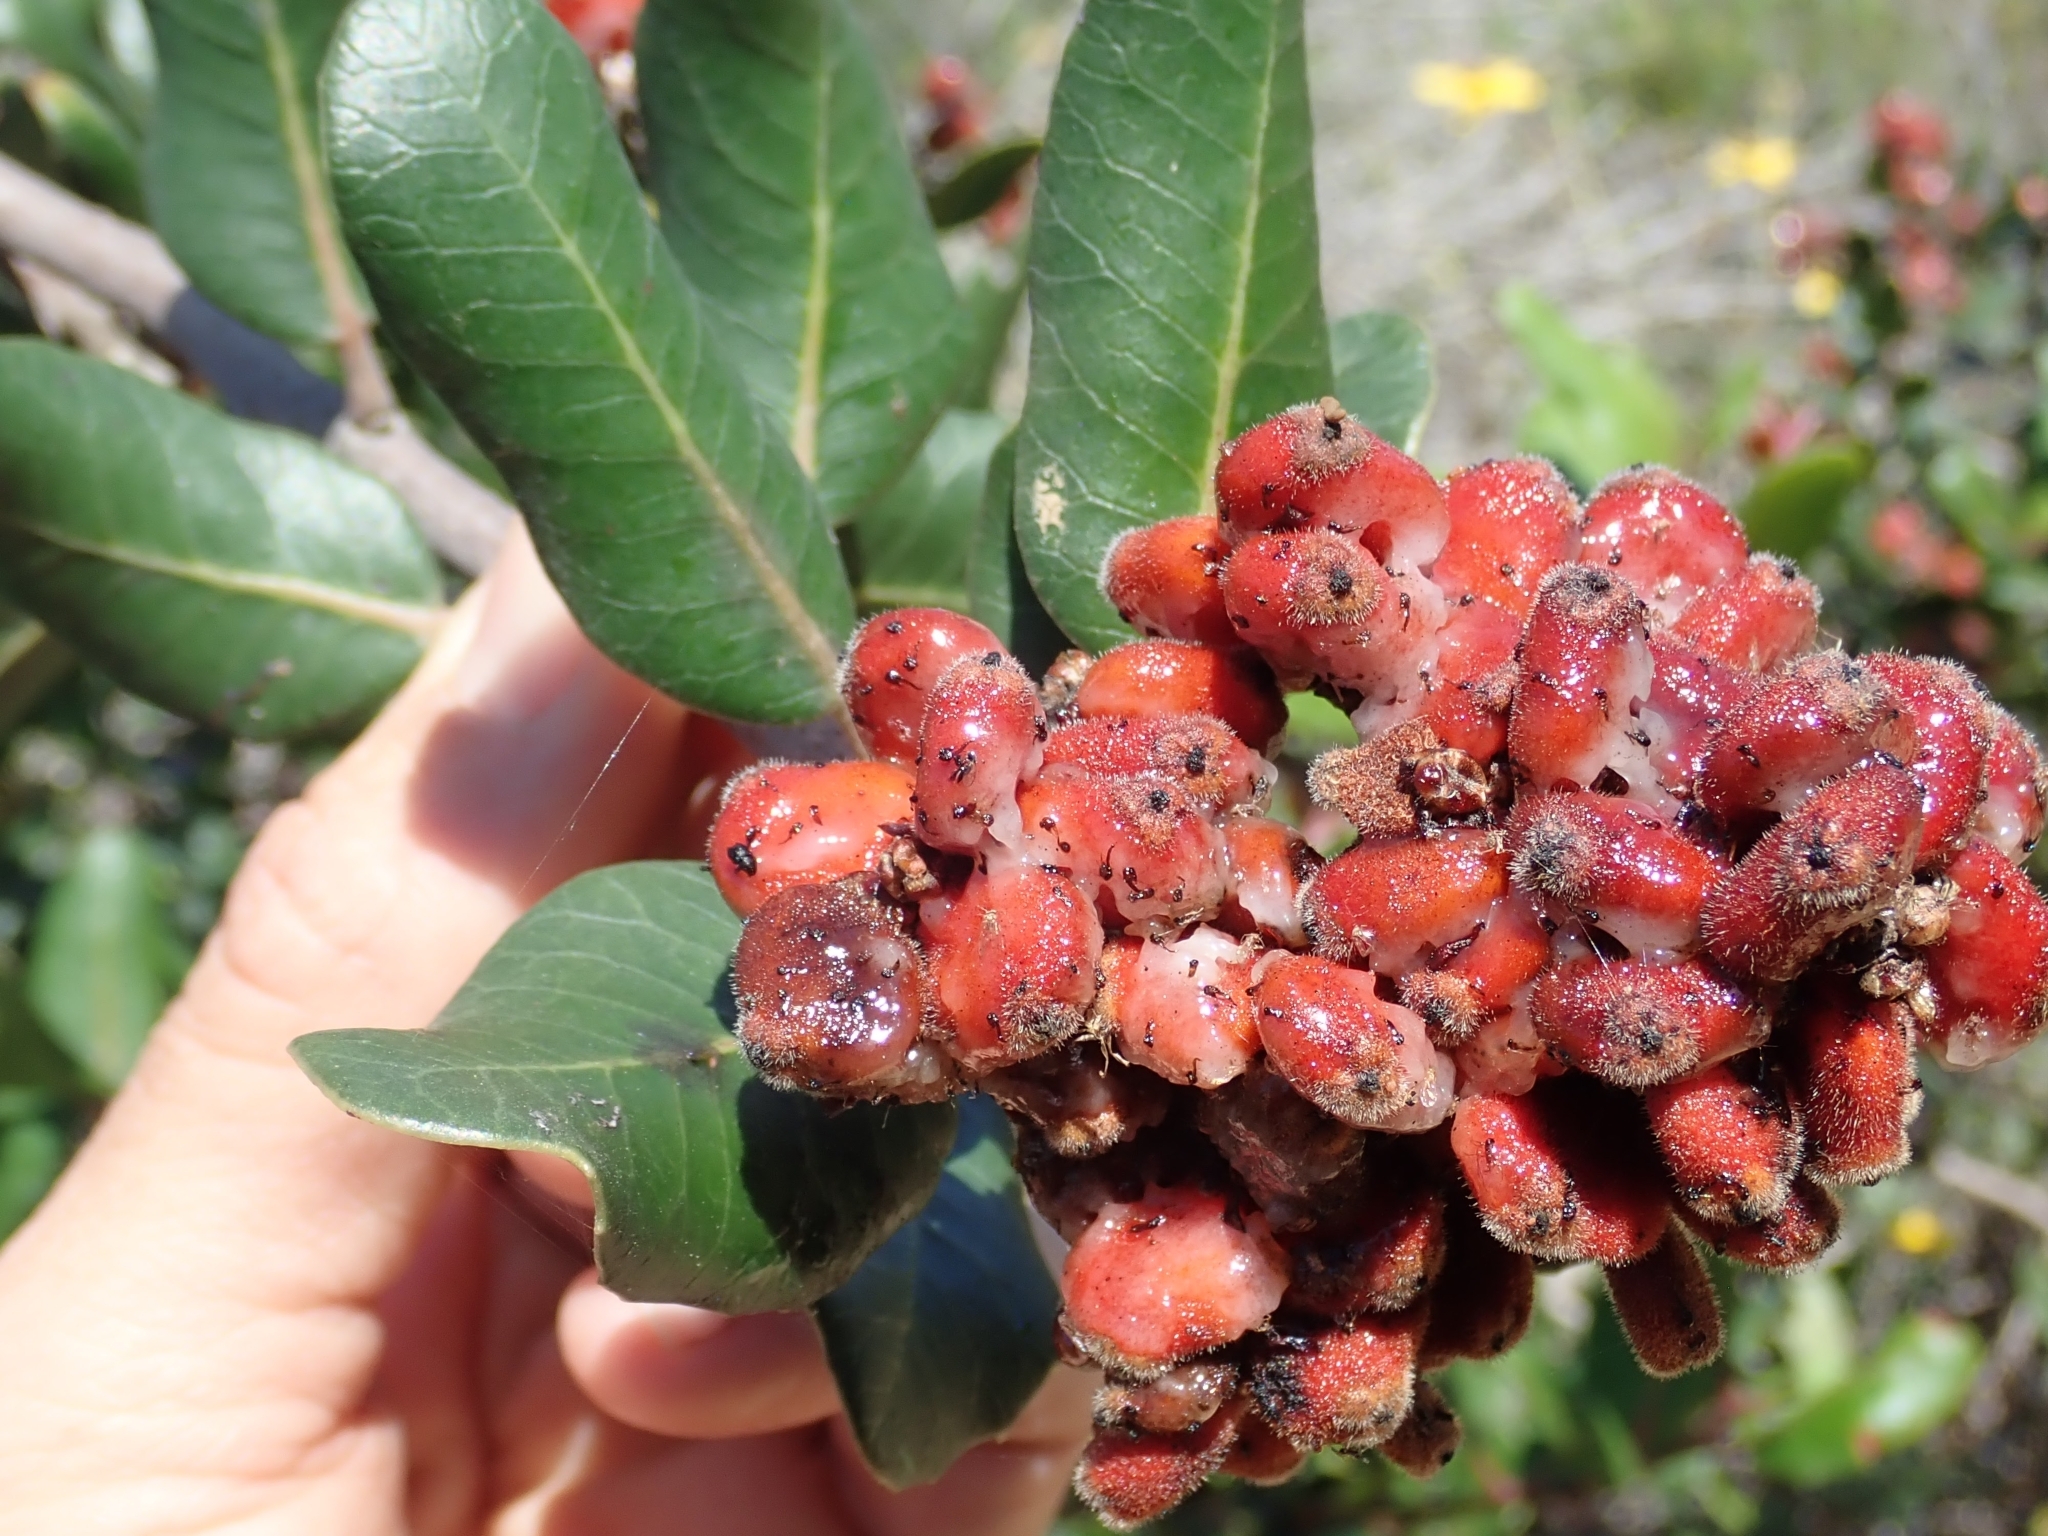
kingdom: Plantae
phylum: Tracheophyta
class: Magnoliopsida
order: Sapindales
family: Anacardiaceae
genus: Rhus
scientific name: Rhus integrifolia
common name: Lemonade sumac
